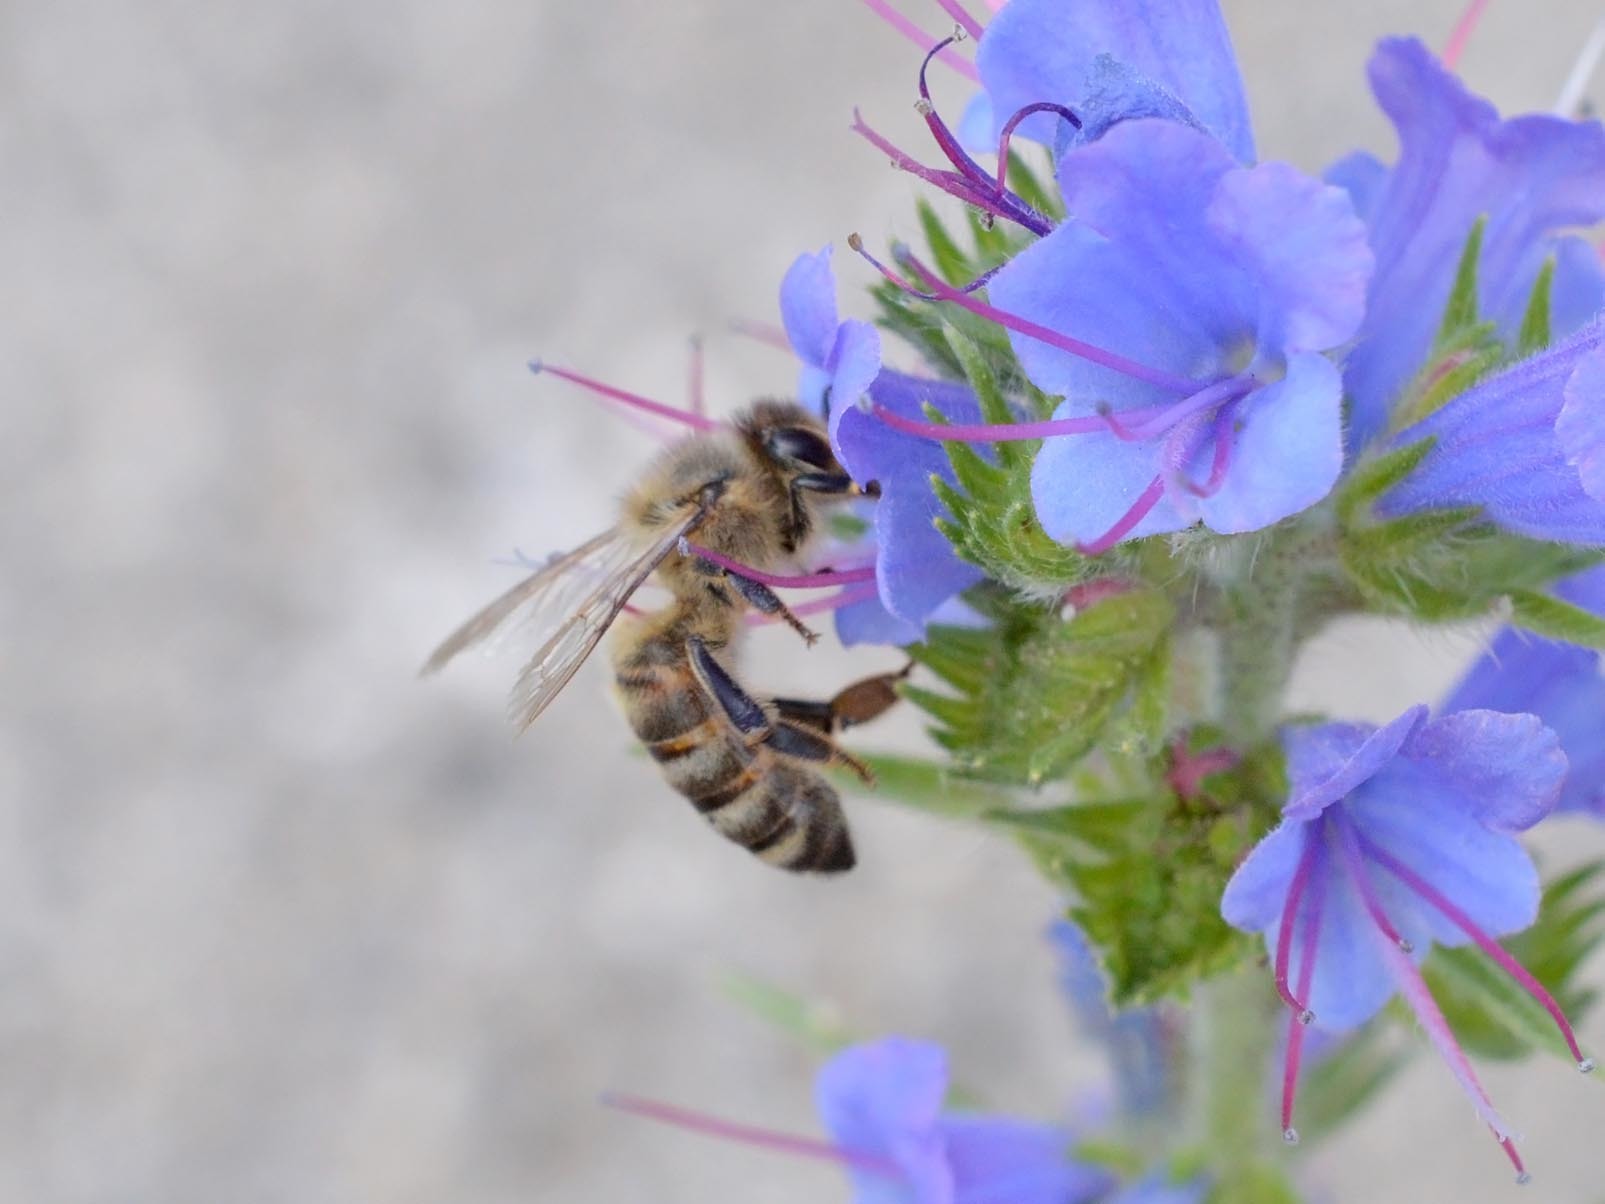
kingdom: Animalia
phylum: Arthropoda
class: Insecta
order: Hymenoptera
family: Apidae
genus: Apis
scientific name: Apis mellifera
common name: Honey bee
